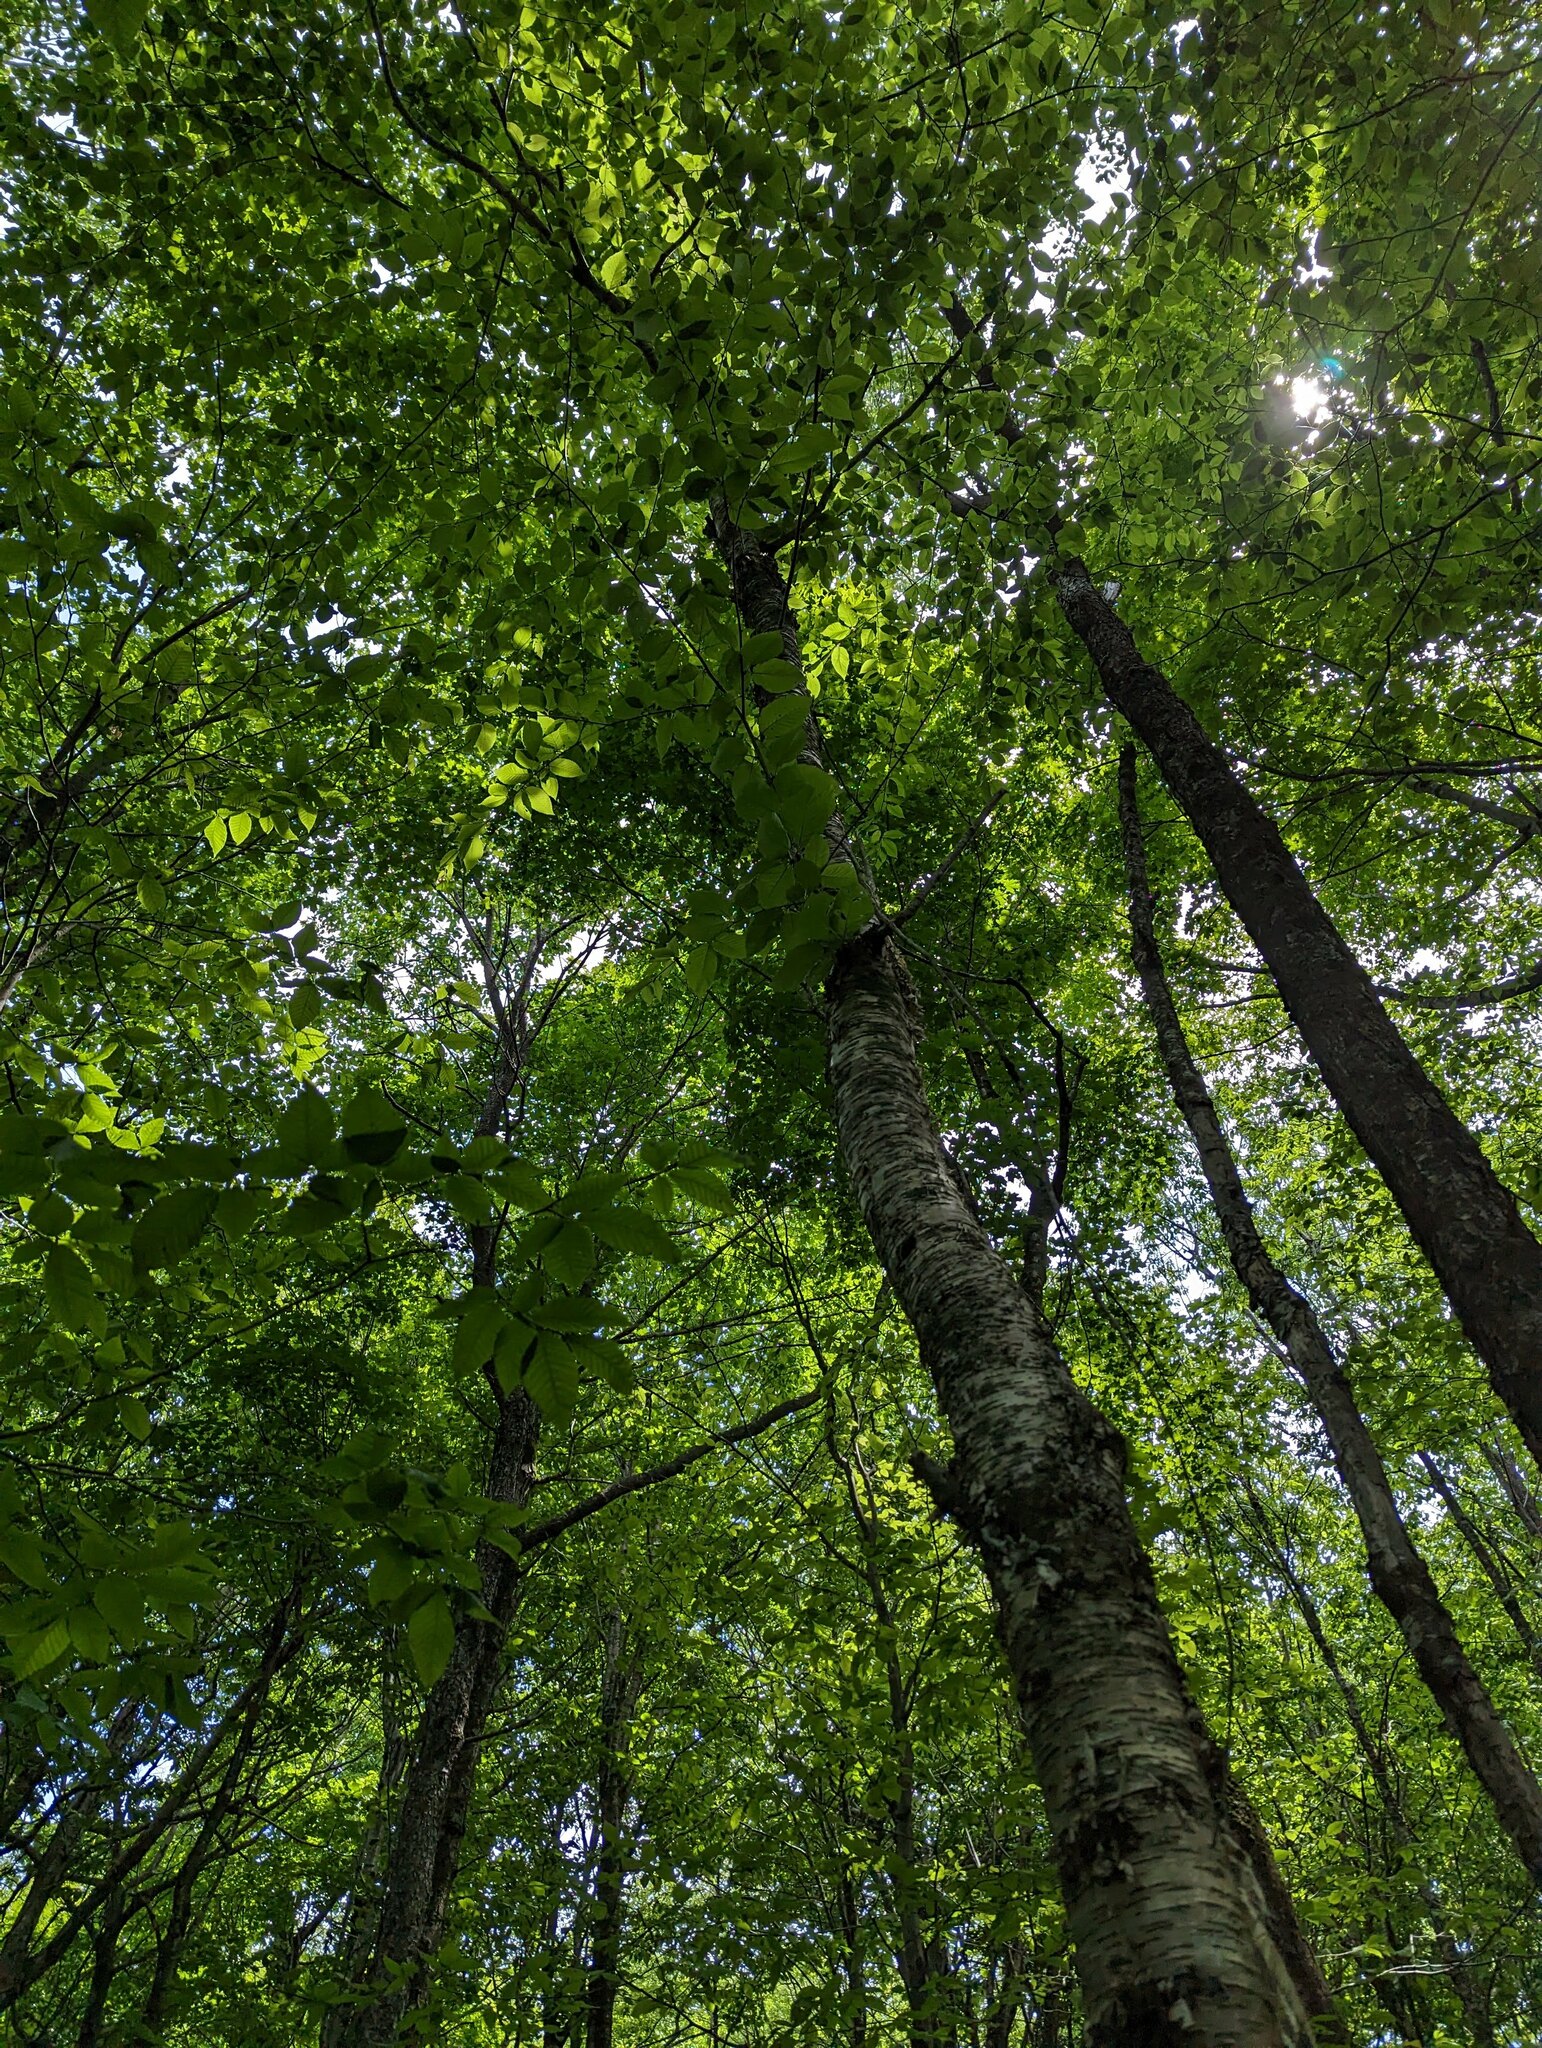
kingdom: Plantae
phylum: Tracheophyta
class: Magnoliopsida
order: Fagales
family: Betulaceae
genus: Betula
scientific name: Betula alleghaniensis
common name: Yellow birch
